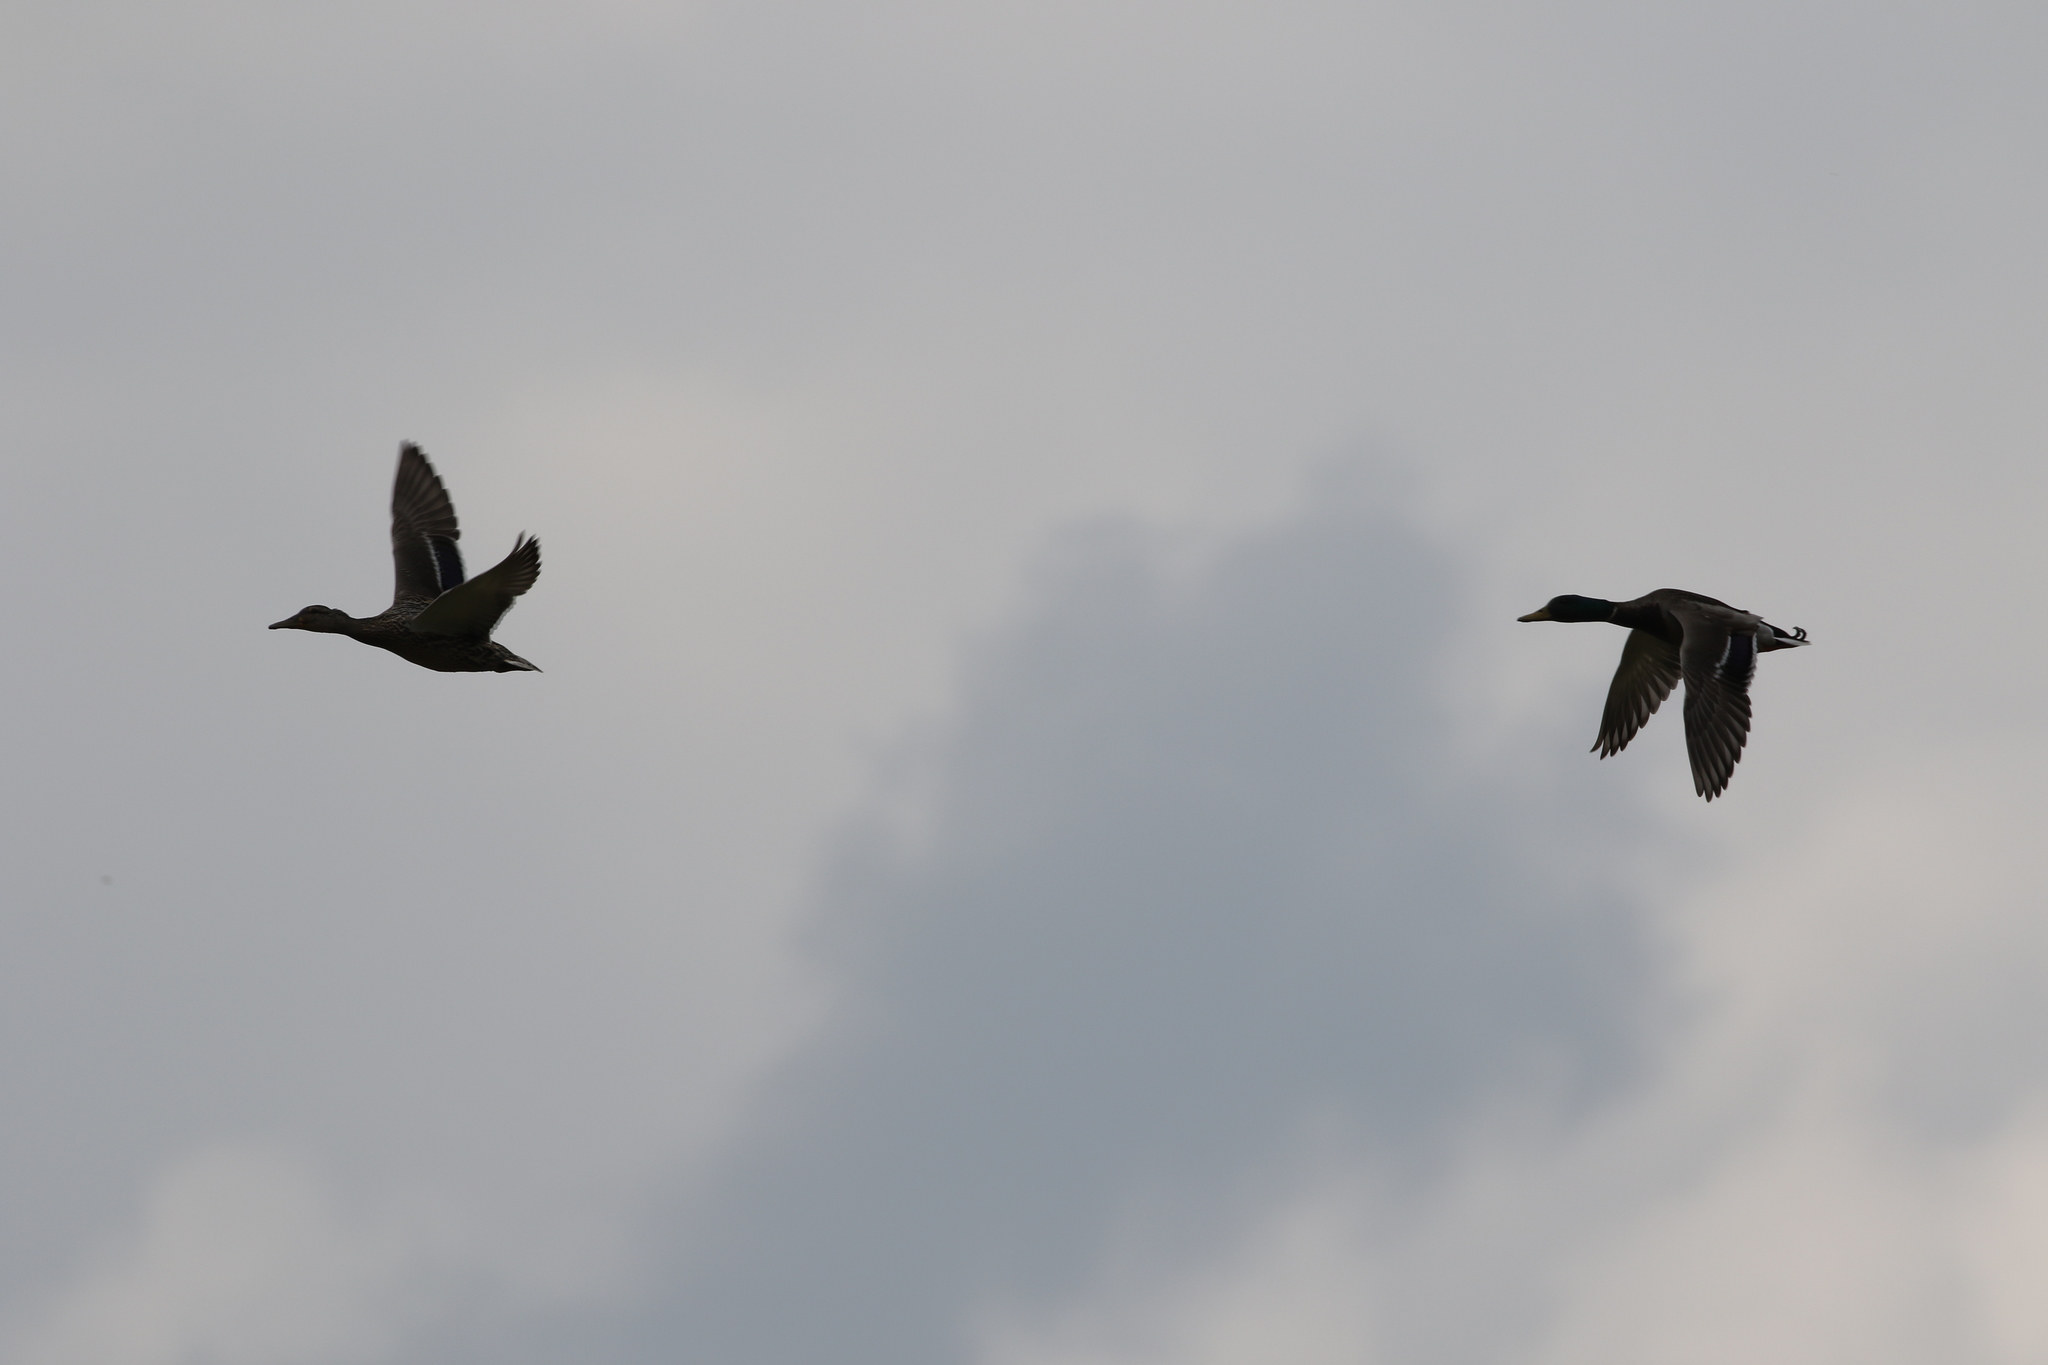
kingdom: Animalia
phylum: Chordata
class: Aves
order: Anseriformes
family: Anatidae
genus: Anas
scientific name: Anas platyrhynchos
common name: Mallard
